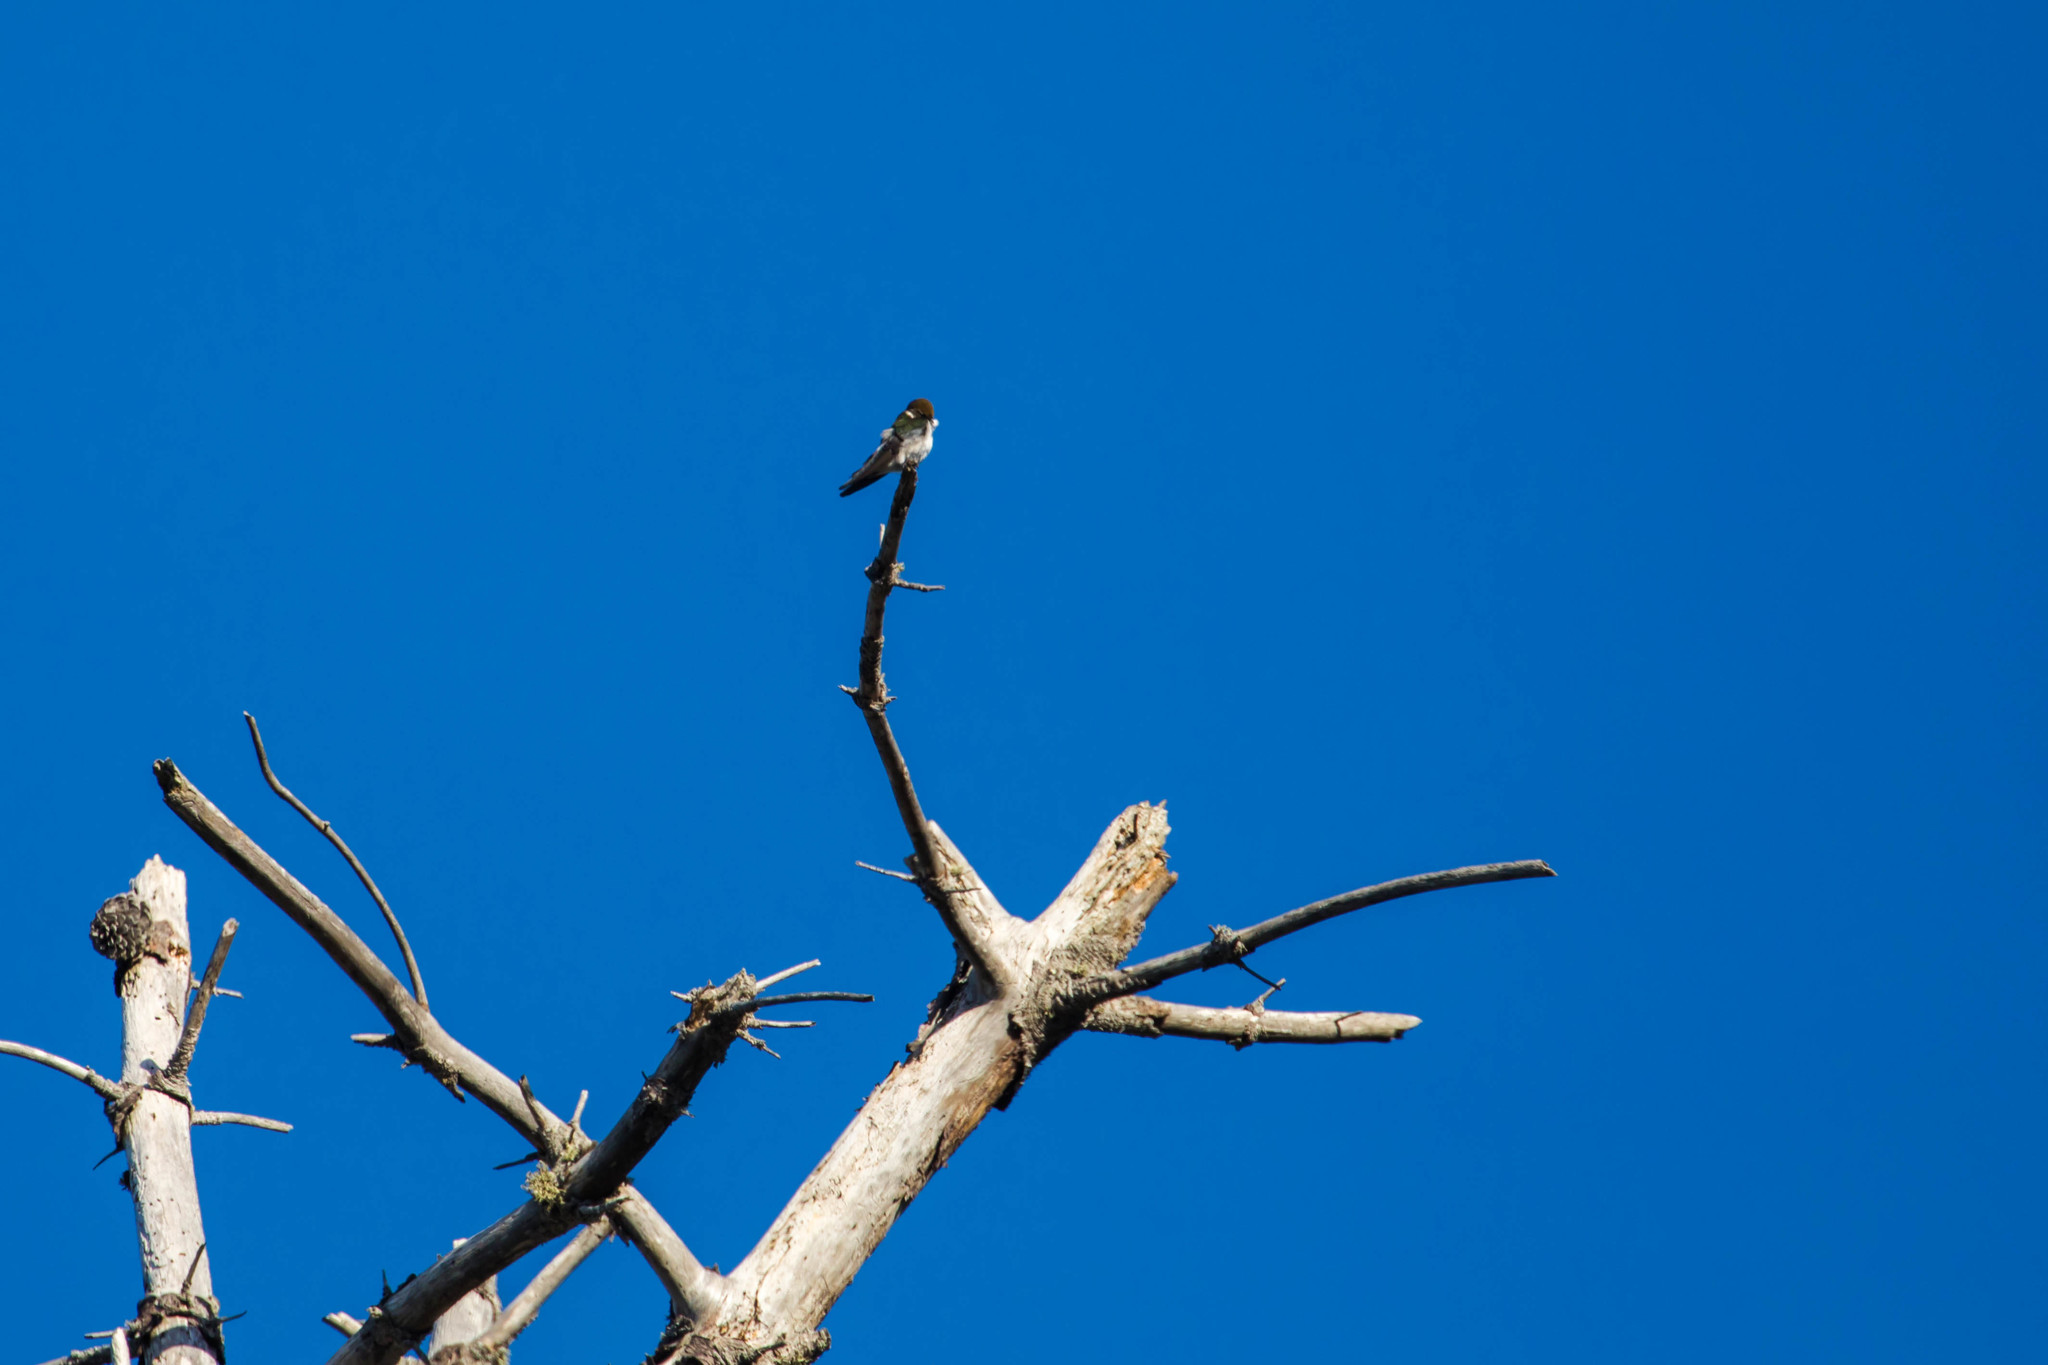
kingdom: Animalia
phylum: Chordata
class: Aves
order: Passeriformes
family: Hirundinidae
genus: Tachycineta
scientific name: Tachycineta thalassina
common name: Violet-green swallow
